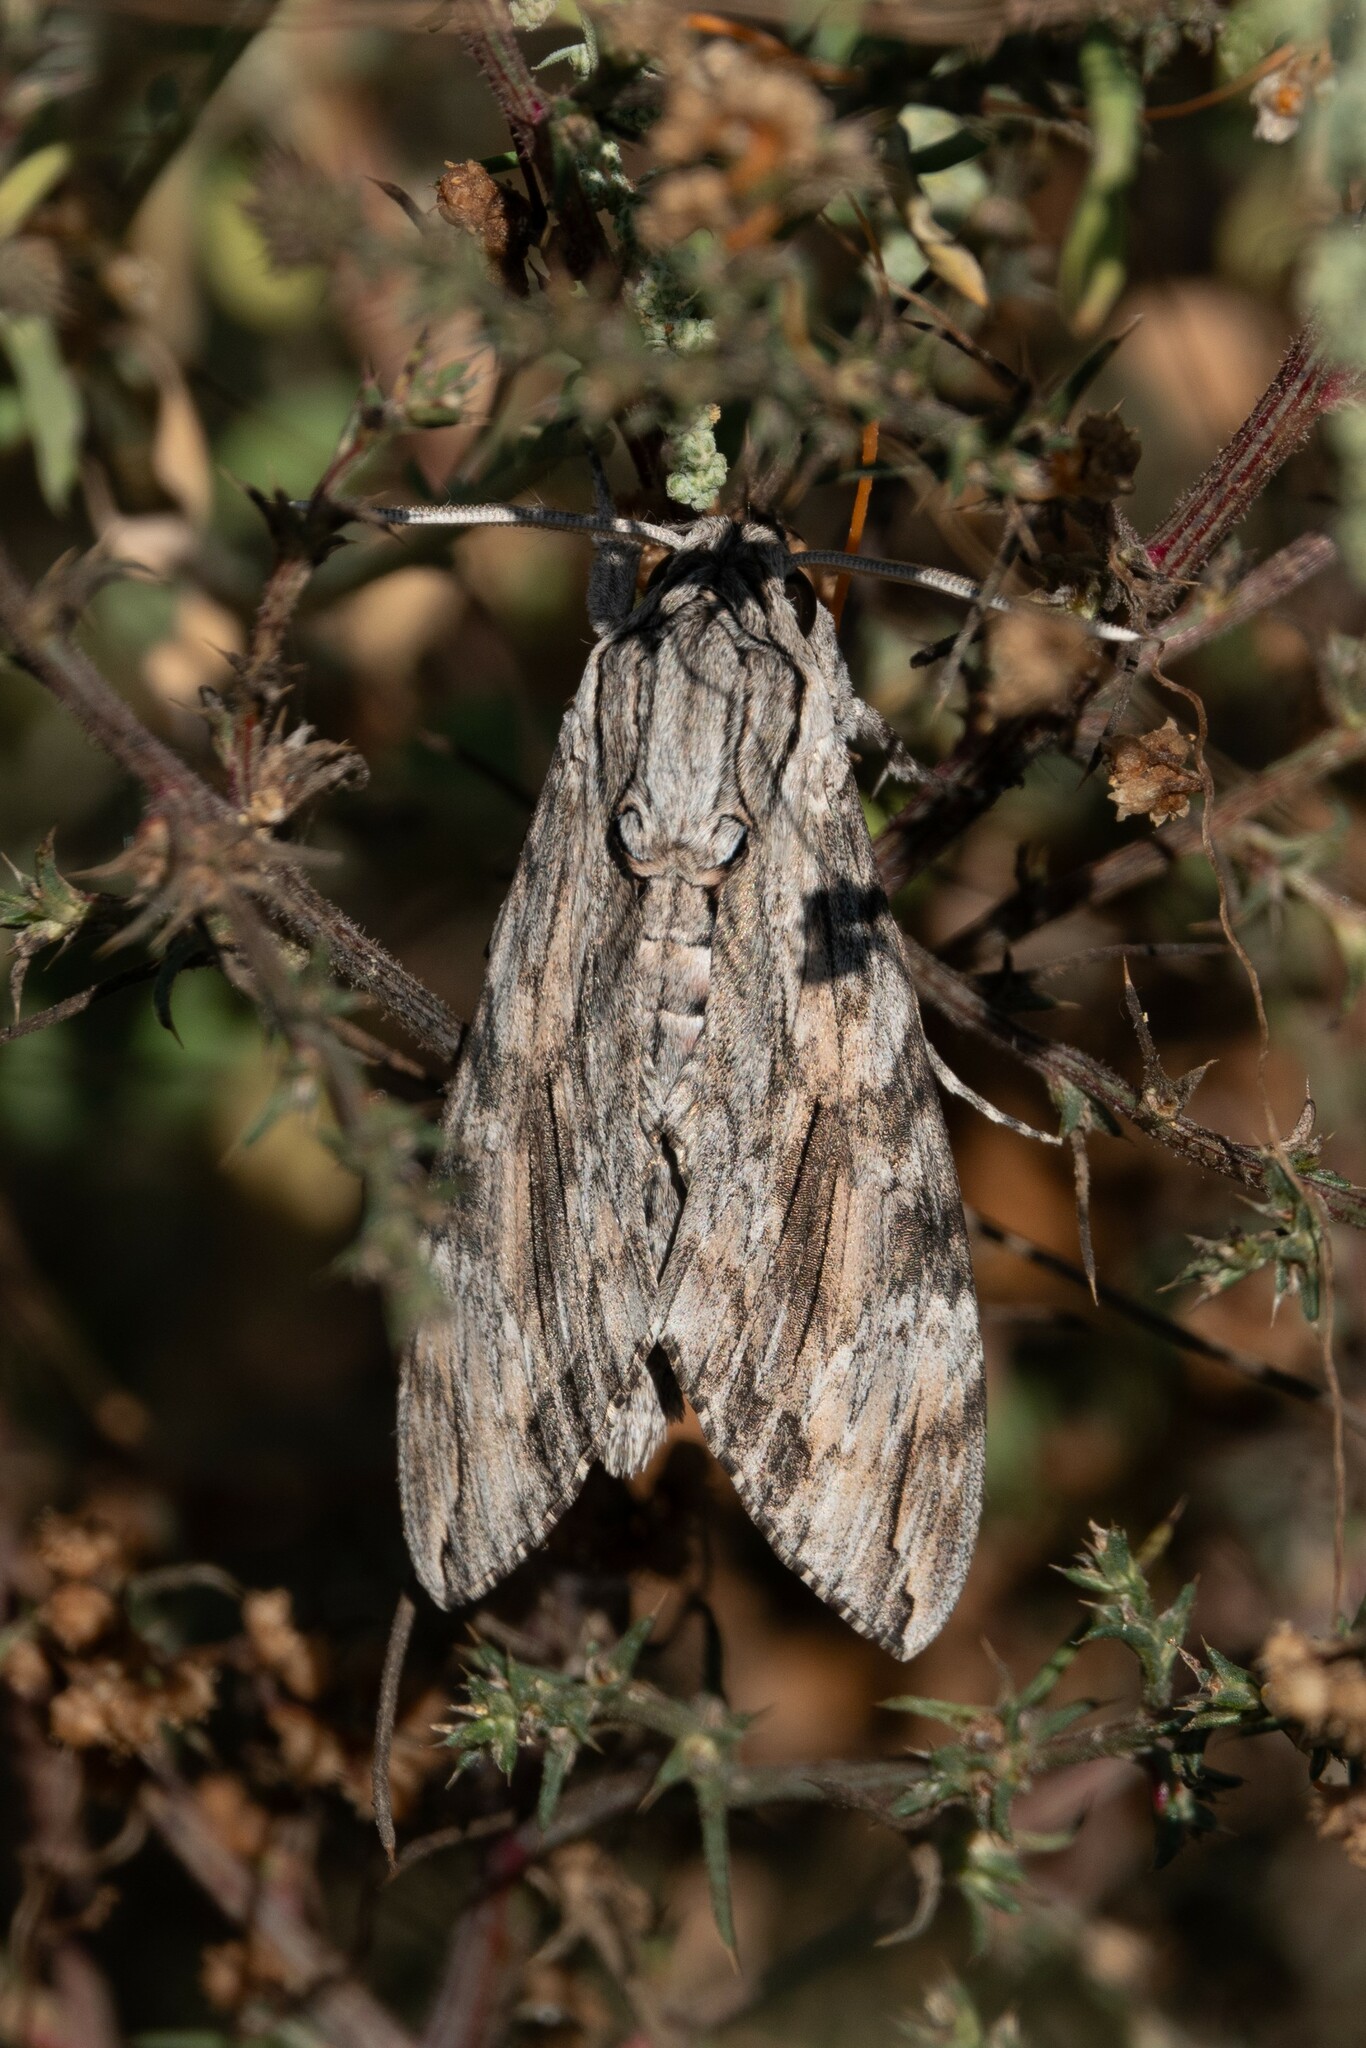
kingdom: Animalia
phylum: Arthropoda
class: Insecta
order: Lepidoptera
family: Sphingidae
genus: Agrius
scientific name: Agrius convolvuli
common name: Convolvulus hawkmoth
